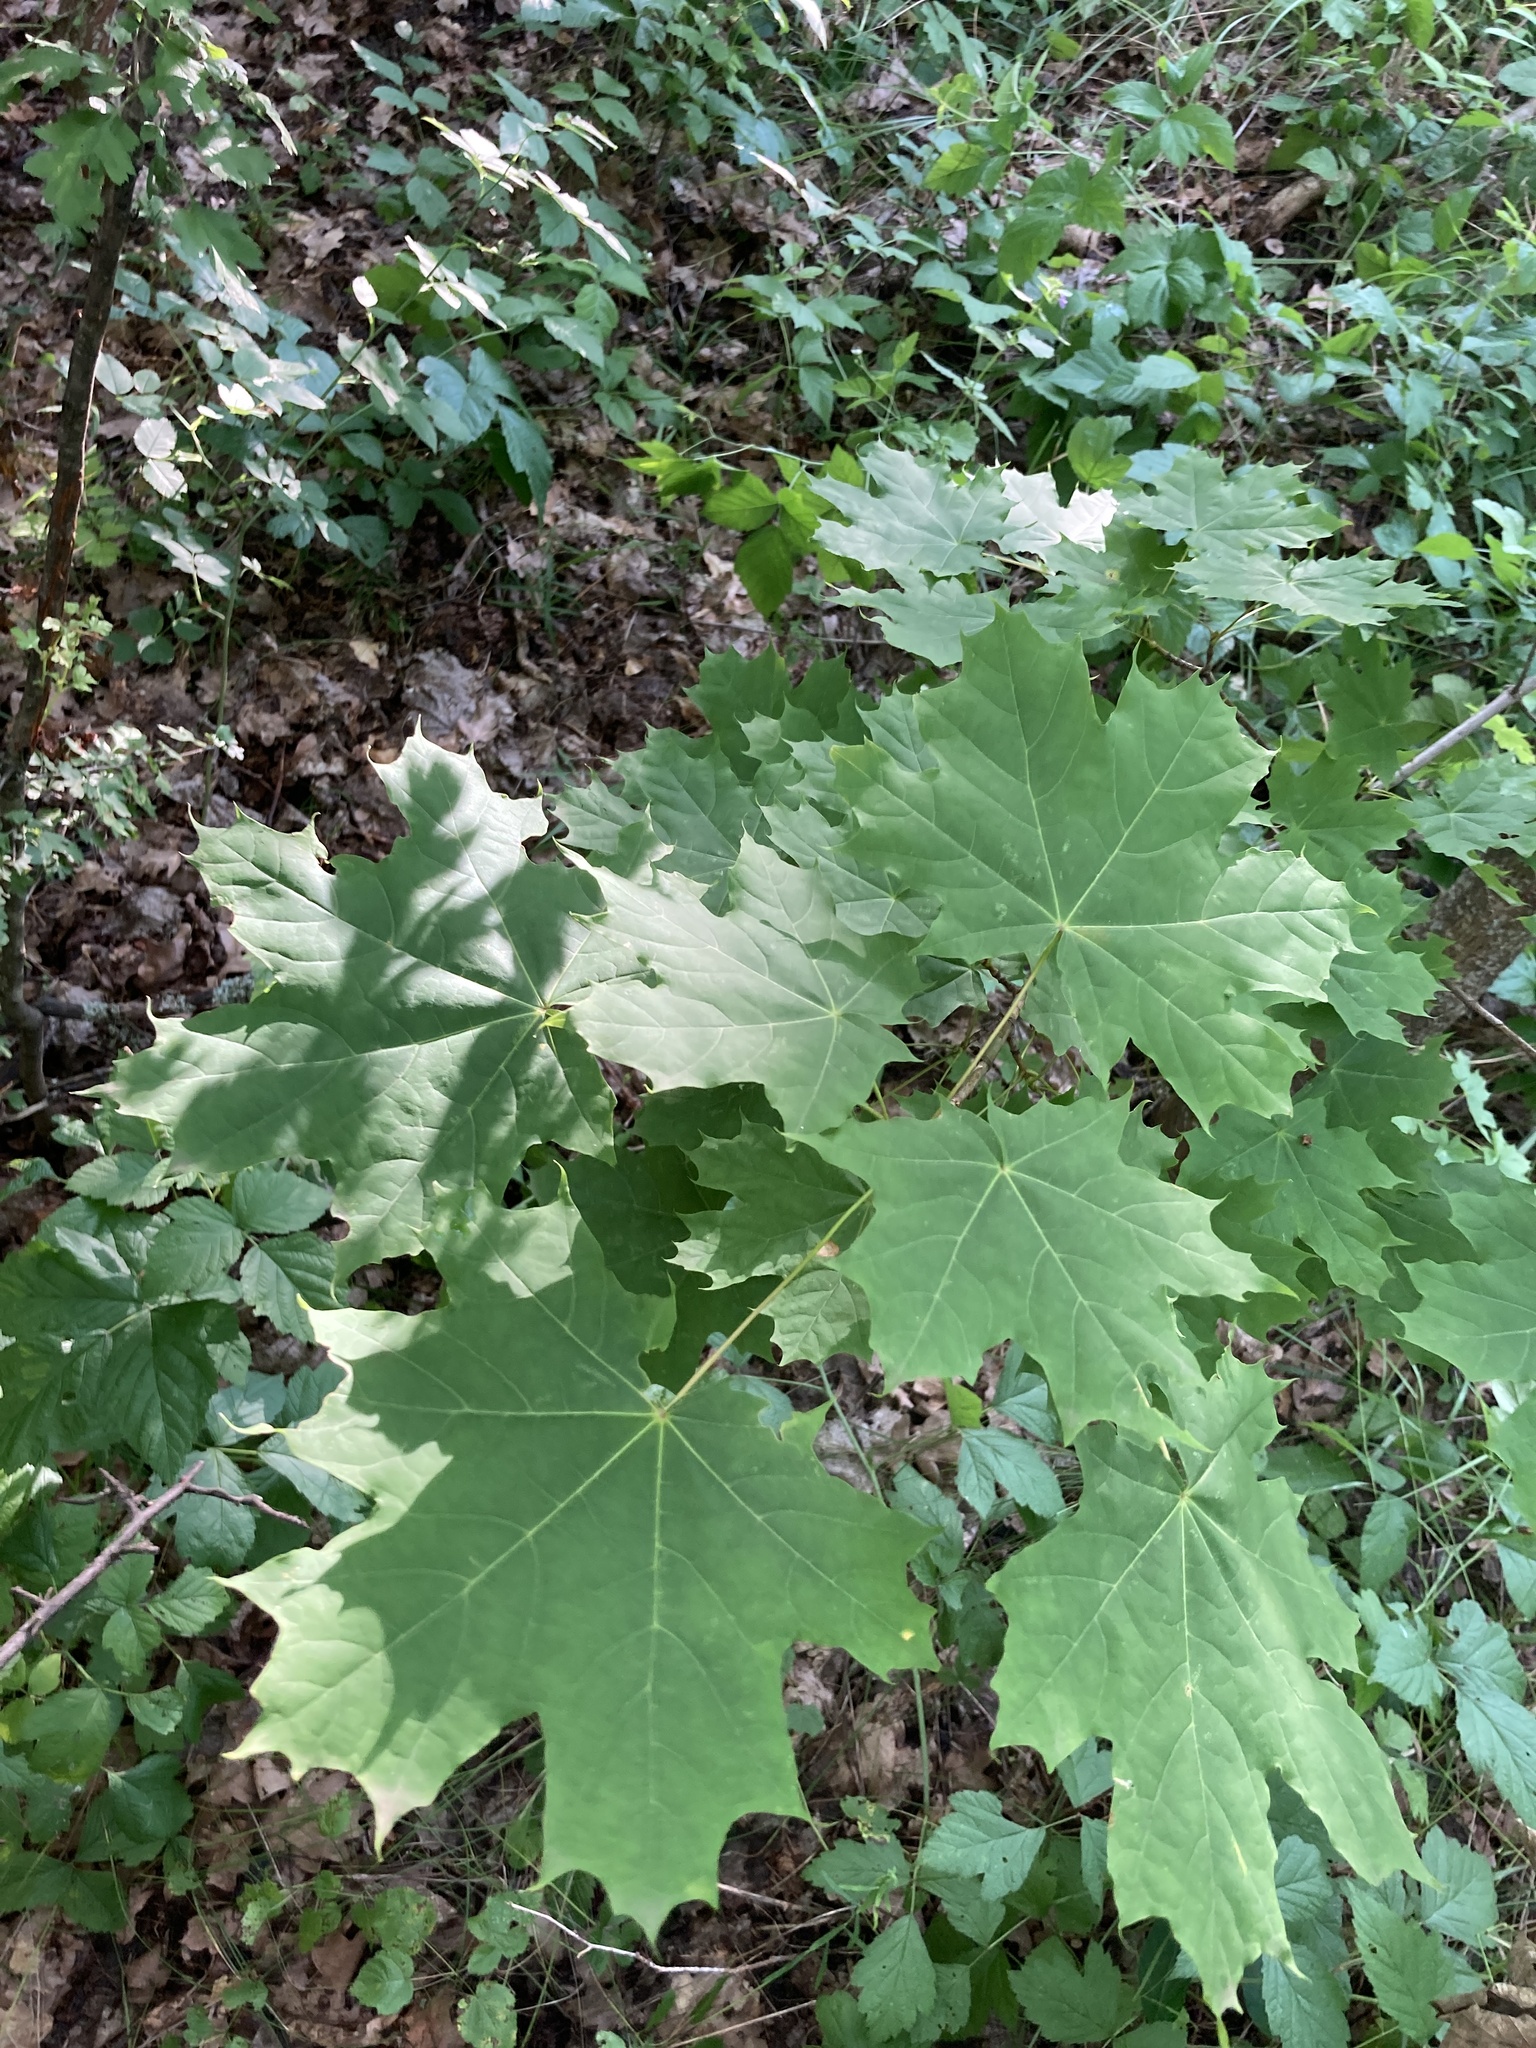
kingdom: Plantae
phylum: Tracheophyta
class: Magnoliopsida
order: Sapindales
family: Sapindaceae
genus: Acer
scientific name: Acer platanoides
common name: Norway maple
